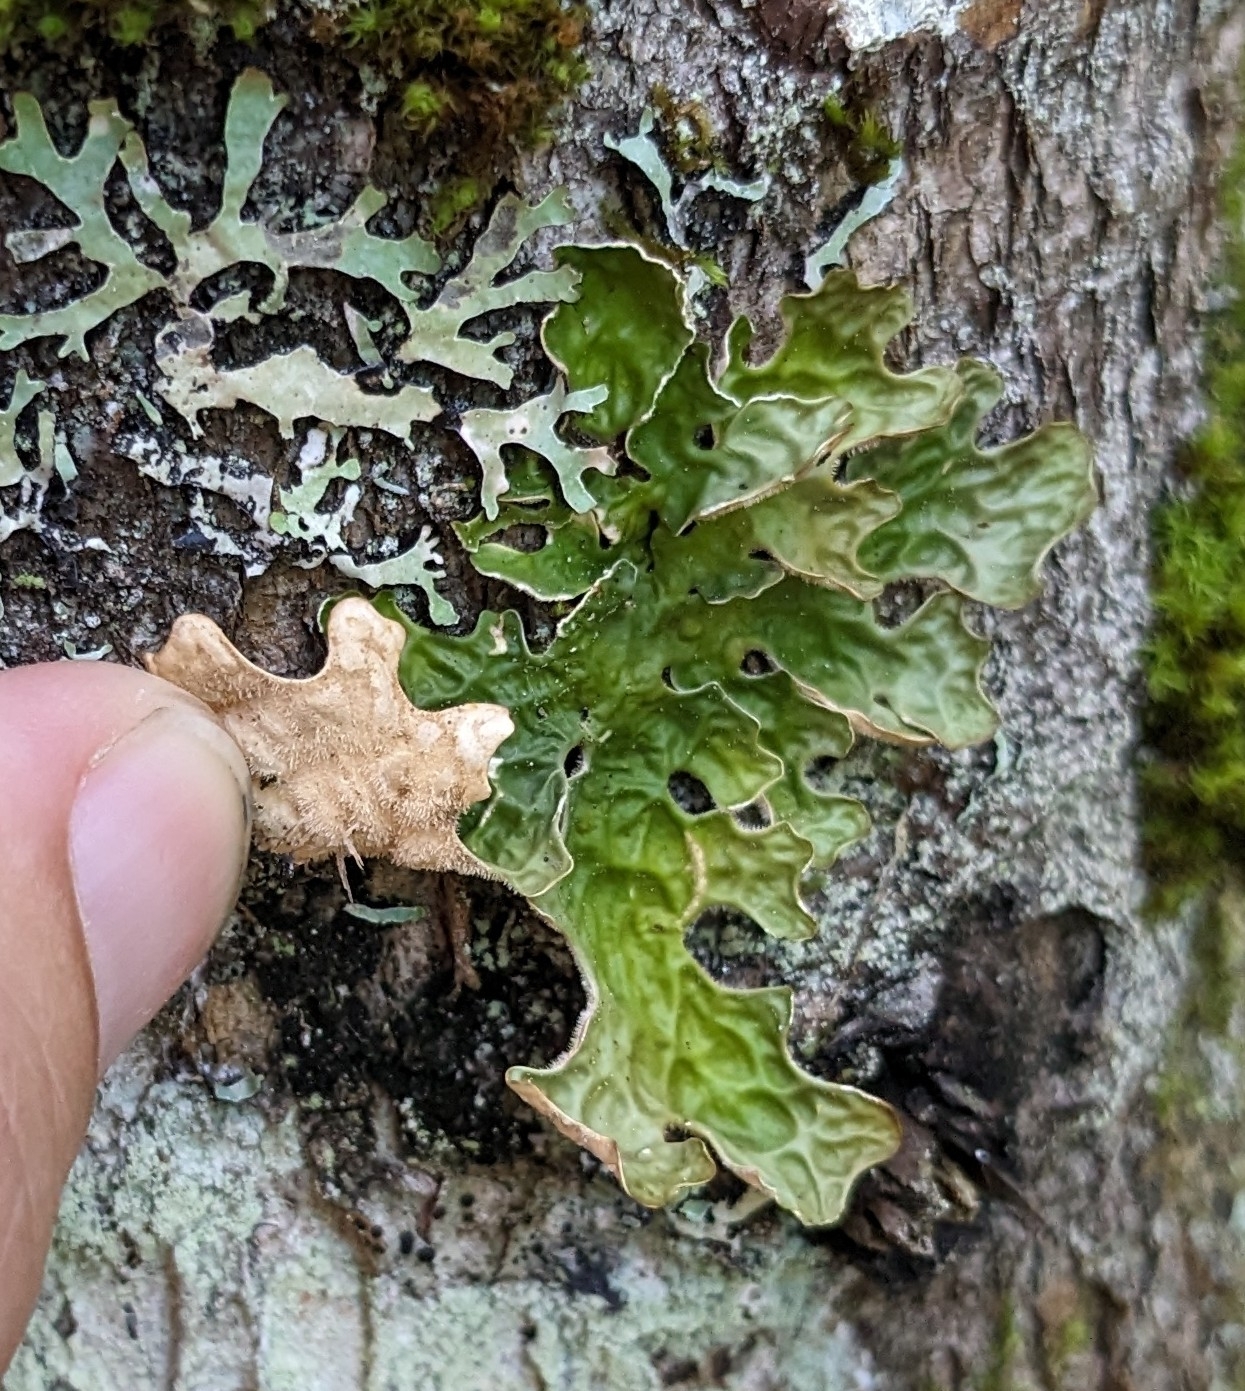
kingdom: Fungi
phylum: Ascomycota
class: Lecanoromycetes
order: Peltigerales
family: Lobariaceae
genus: Lobaria
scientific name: Lobaria pulmonaria
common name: Lungwort
